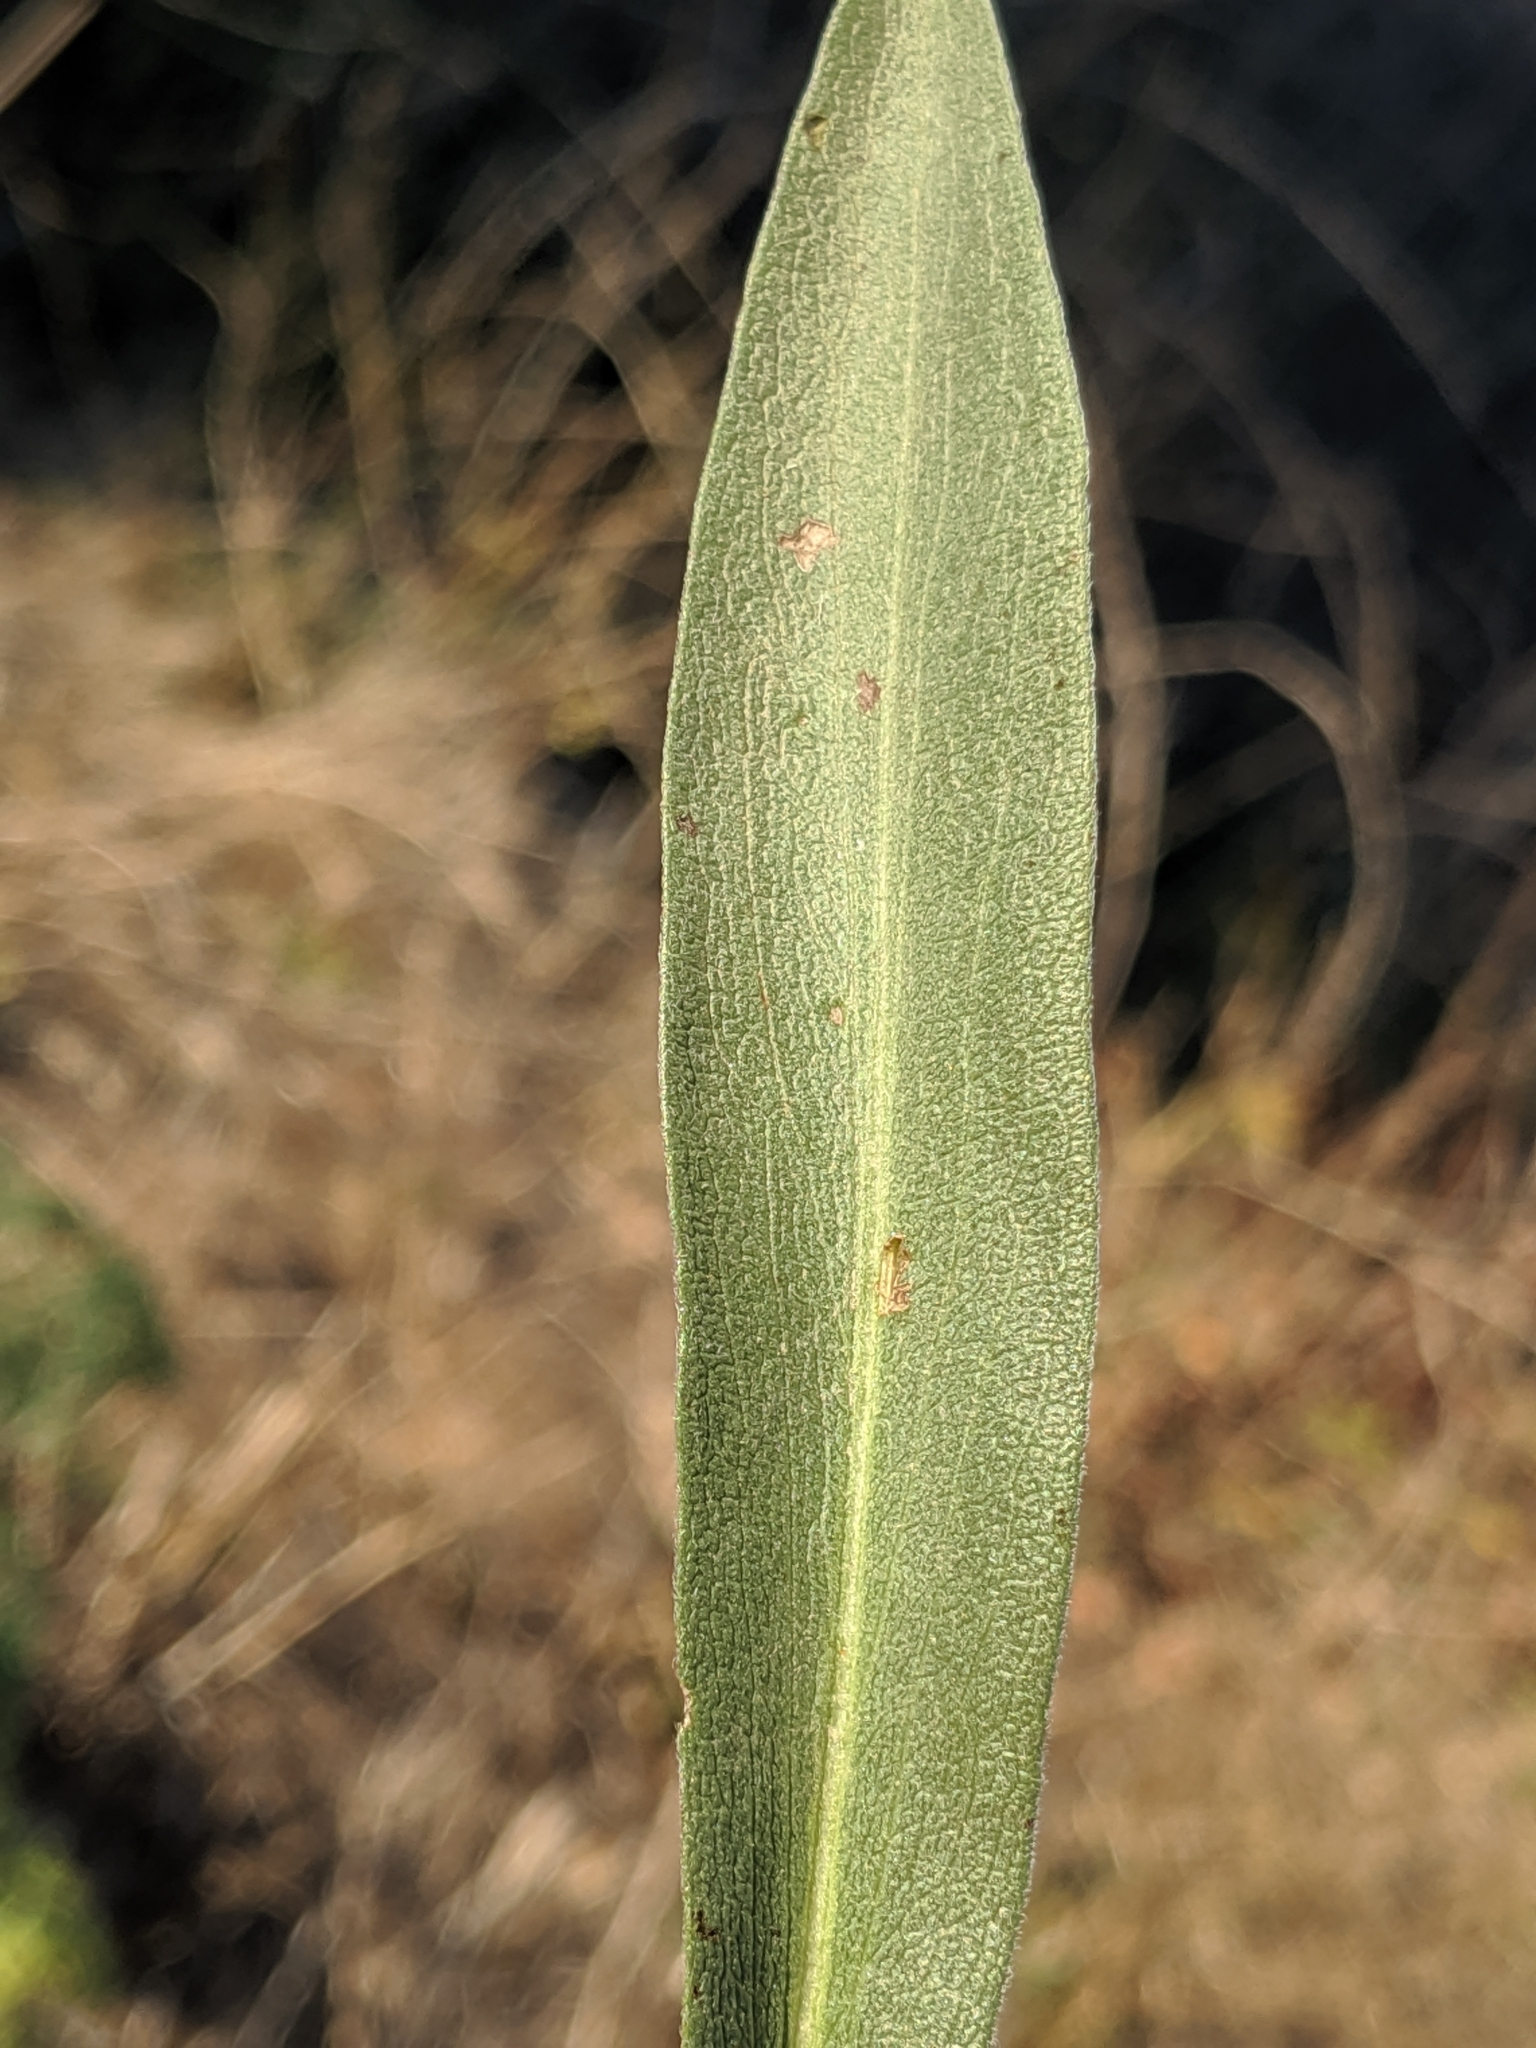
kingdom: Plantae
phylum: Tracheophyta
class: Magnoliopsida
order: Asterales
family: Asteraceae
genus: Symphyotrichum
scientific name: Symphyotrichum subspicatum
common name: Douglas' aster
